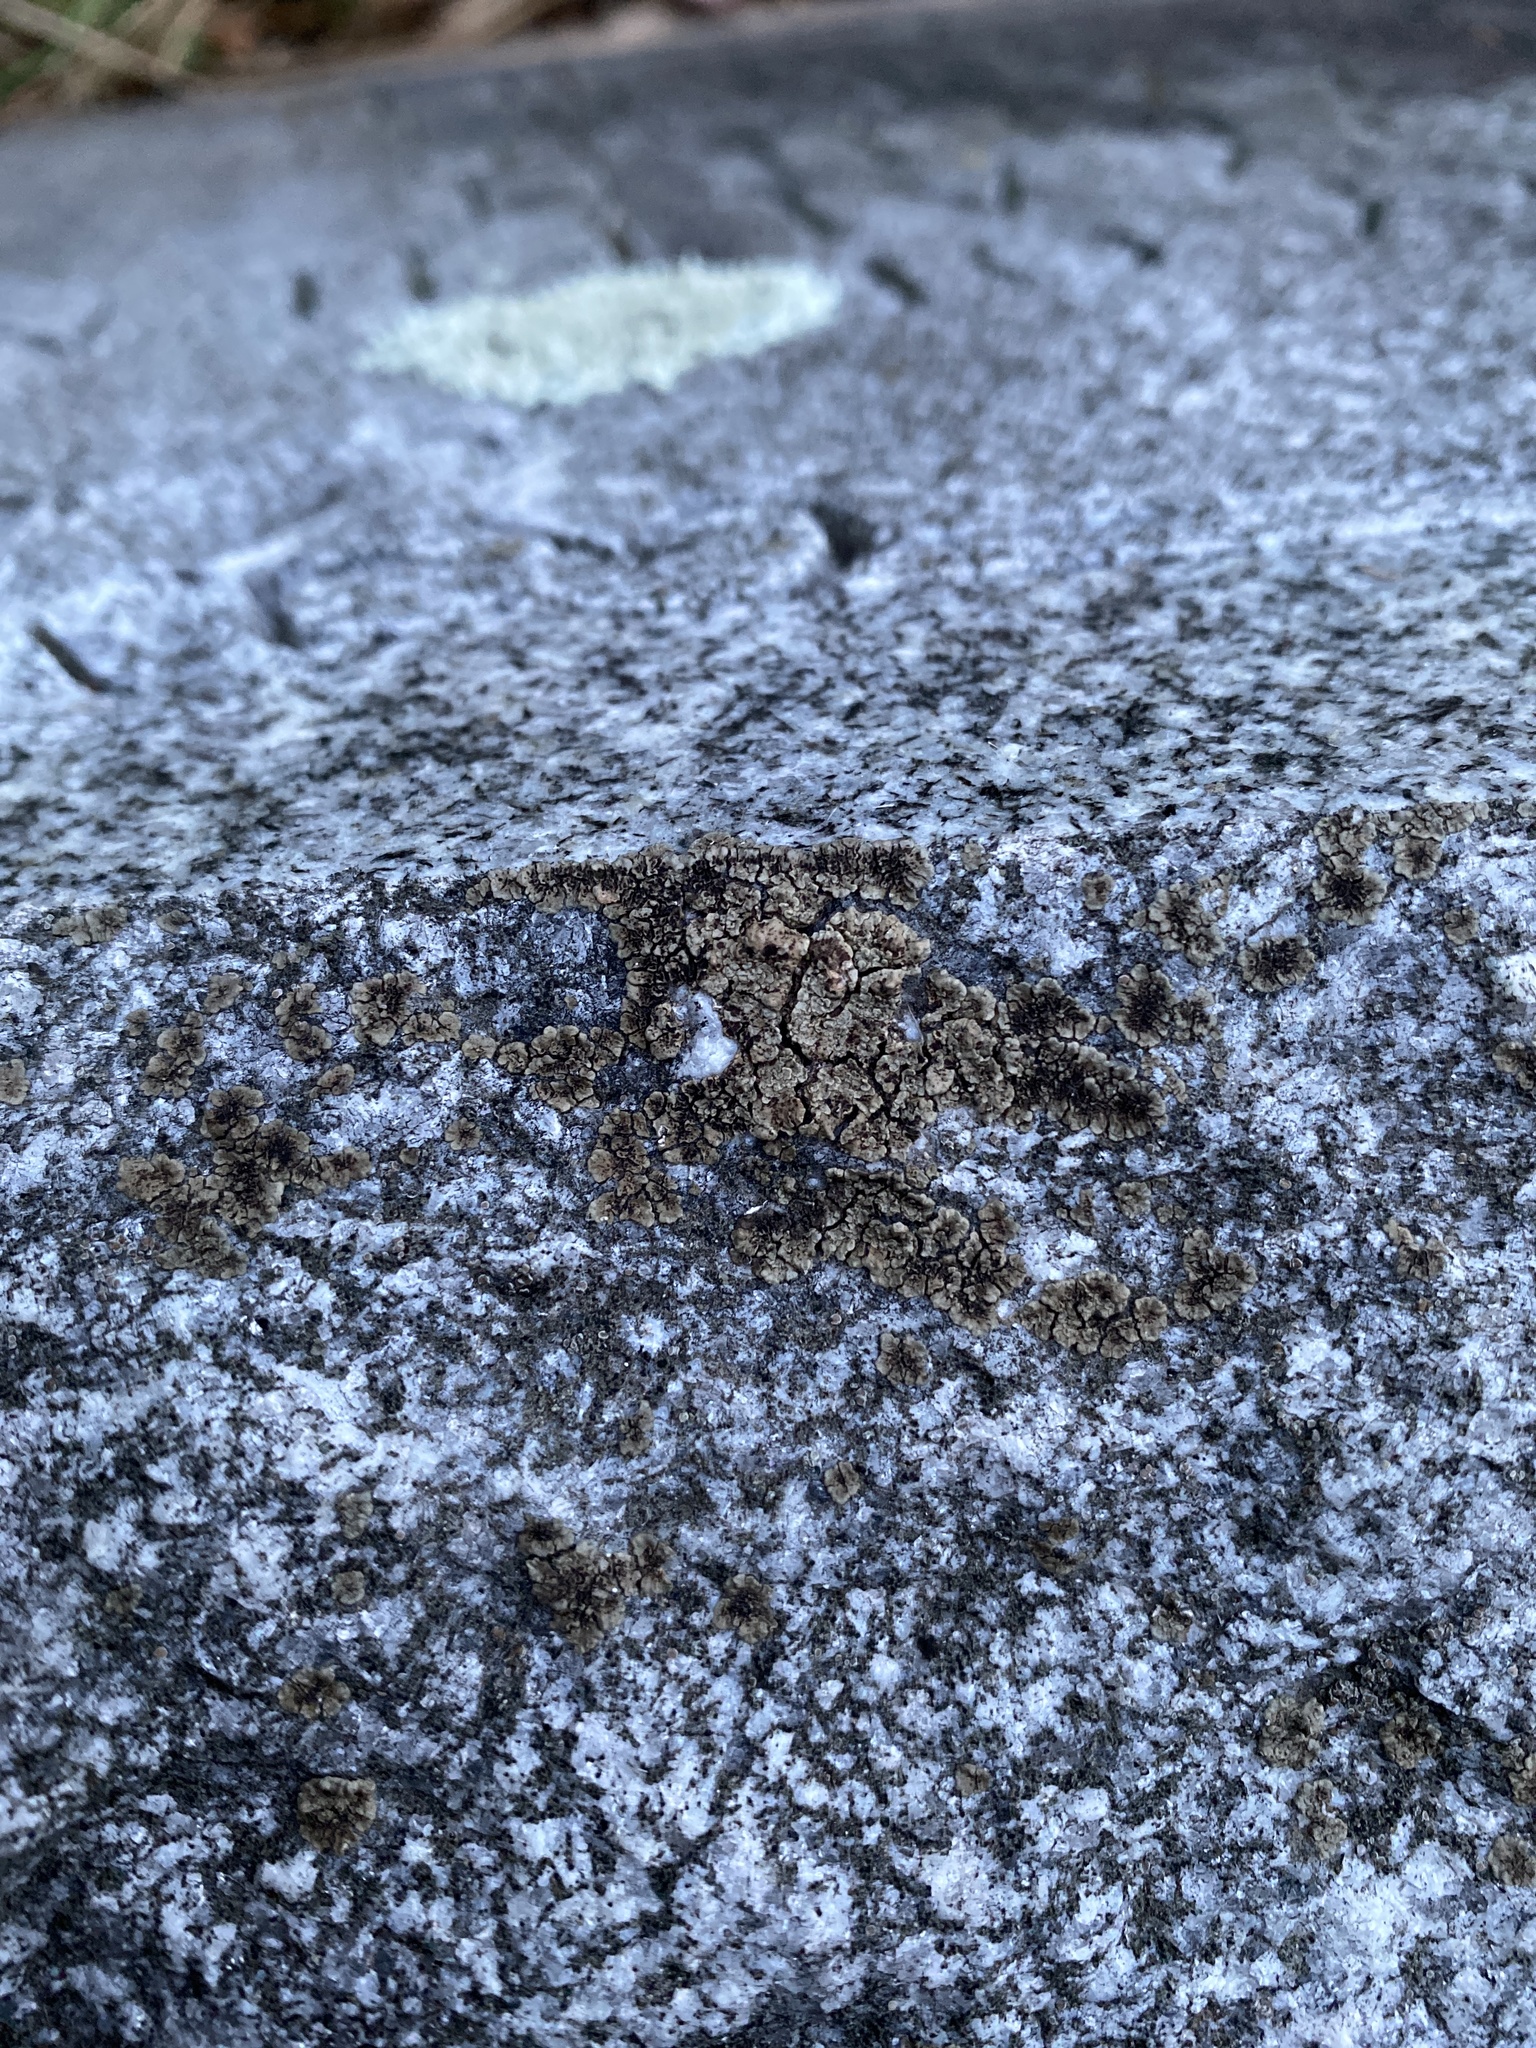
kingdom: Fungi
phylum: Ascomycota
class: Lecanoromycetes
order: Acarosporales
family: Acarosporaceae
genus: Acarospora
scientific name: Acarospora fuscata
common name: Brown cobblestone lichen
